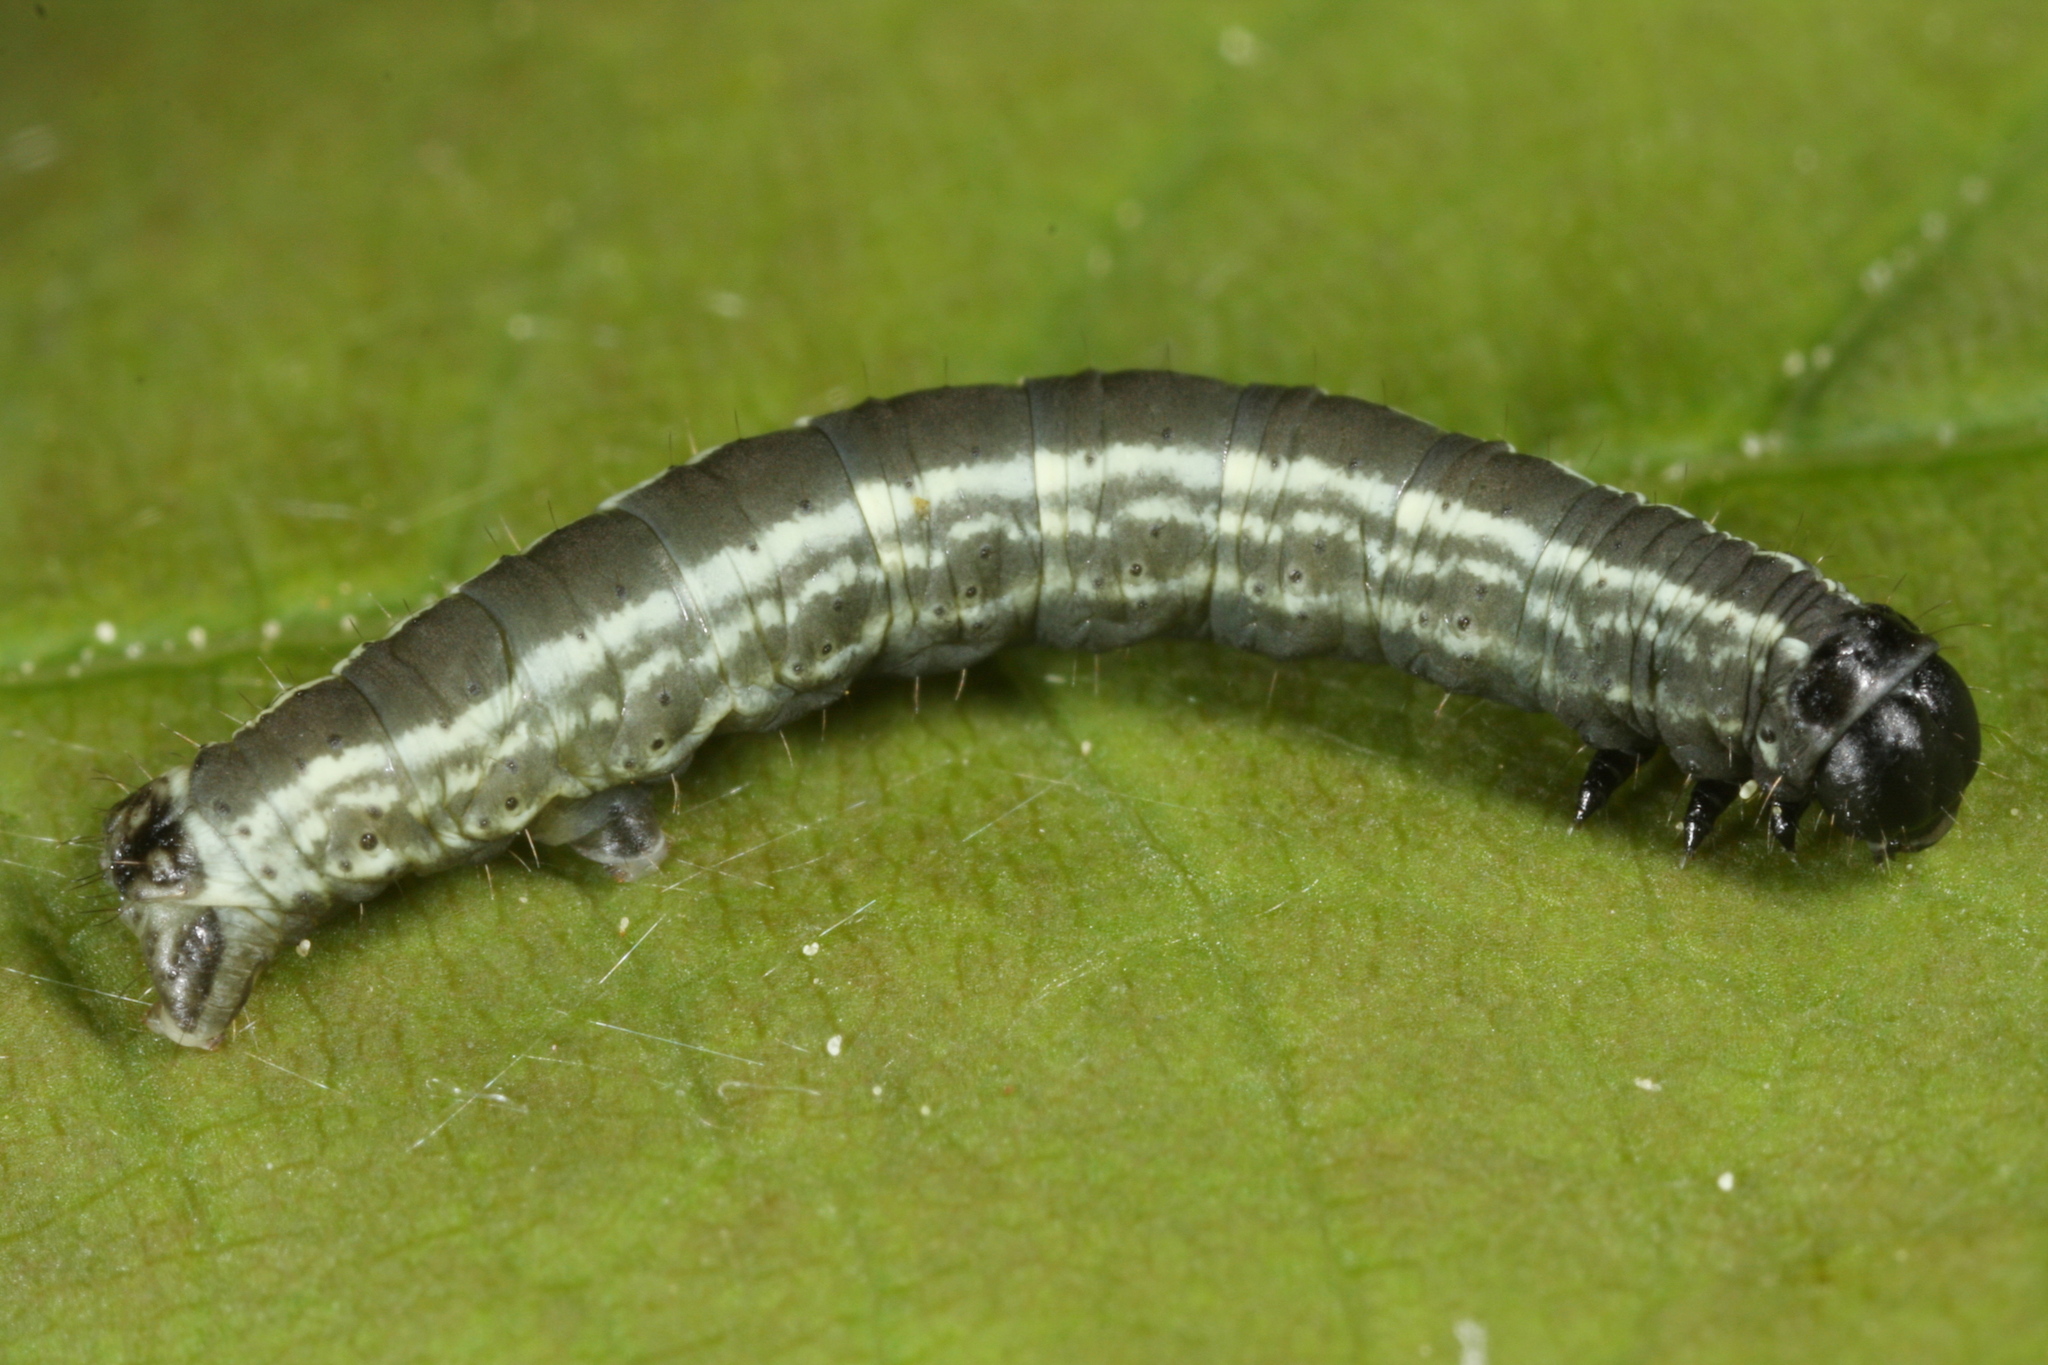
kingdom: Animalia
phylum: Arthropoda
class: Insecta
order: Lepidoptera
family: Geometridae
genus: Operophtera
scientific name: Operophtera fagata
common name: Northern winter moth
